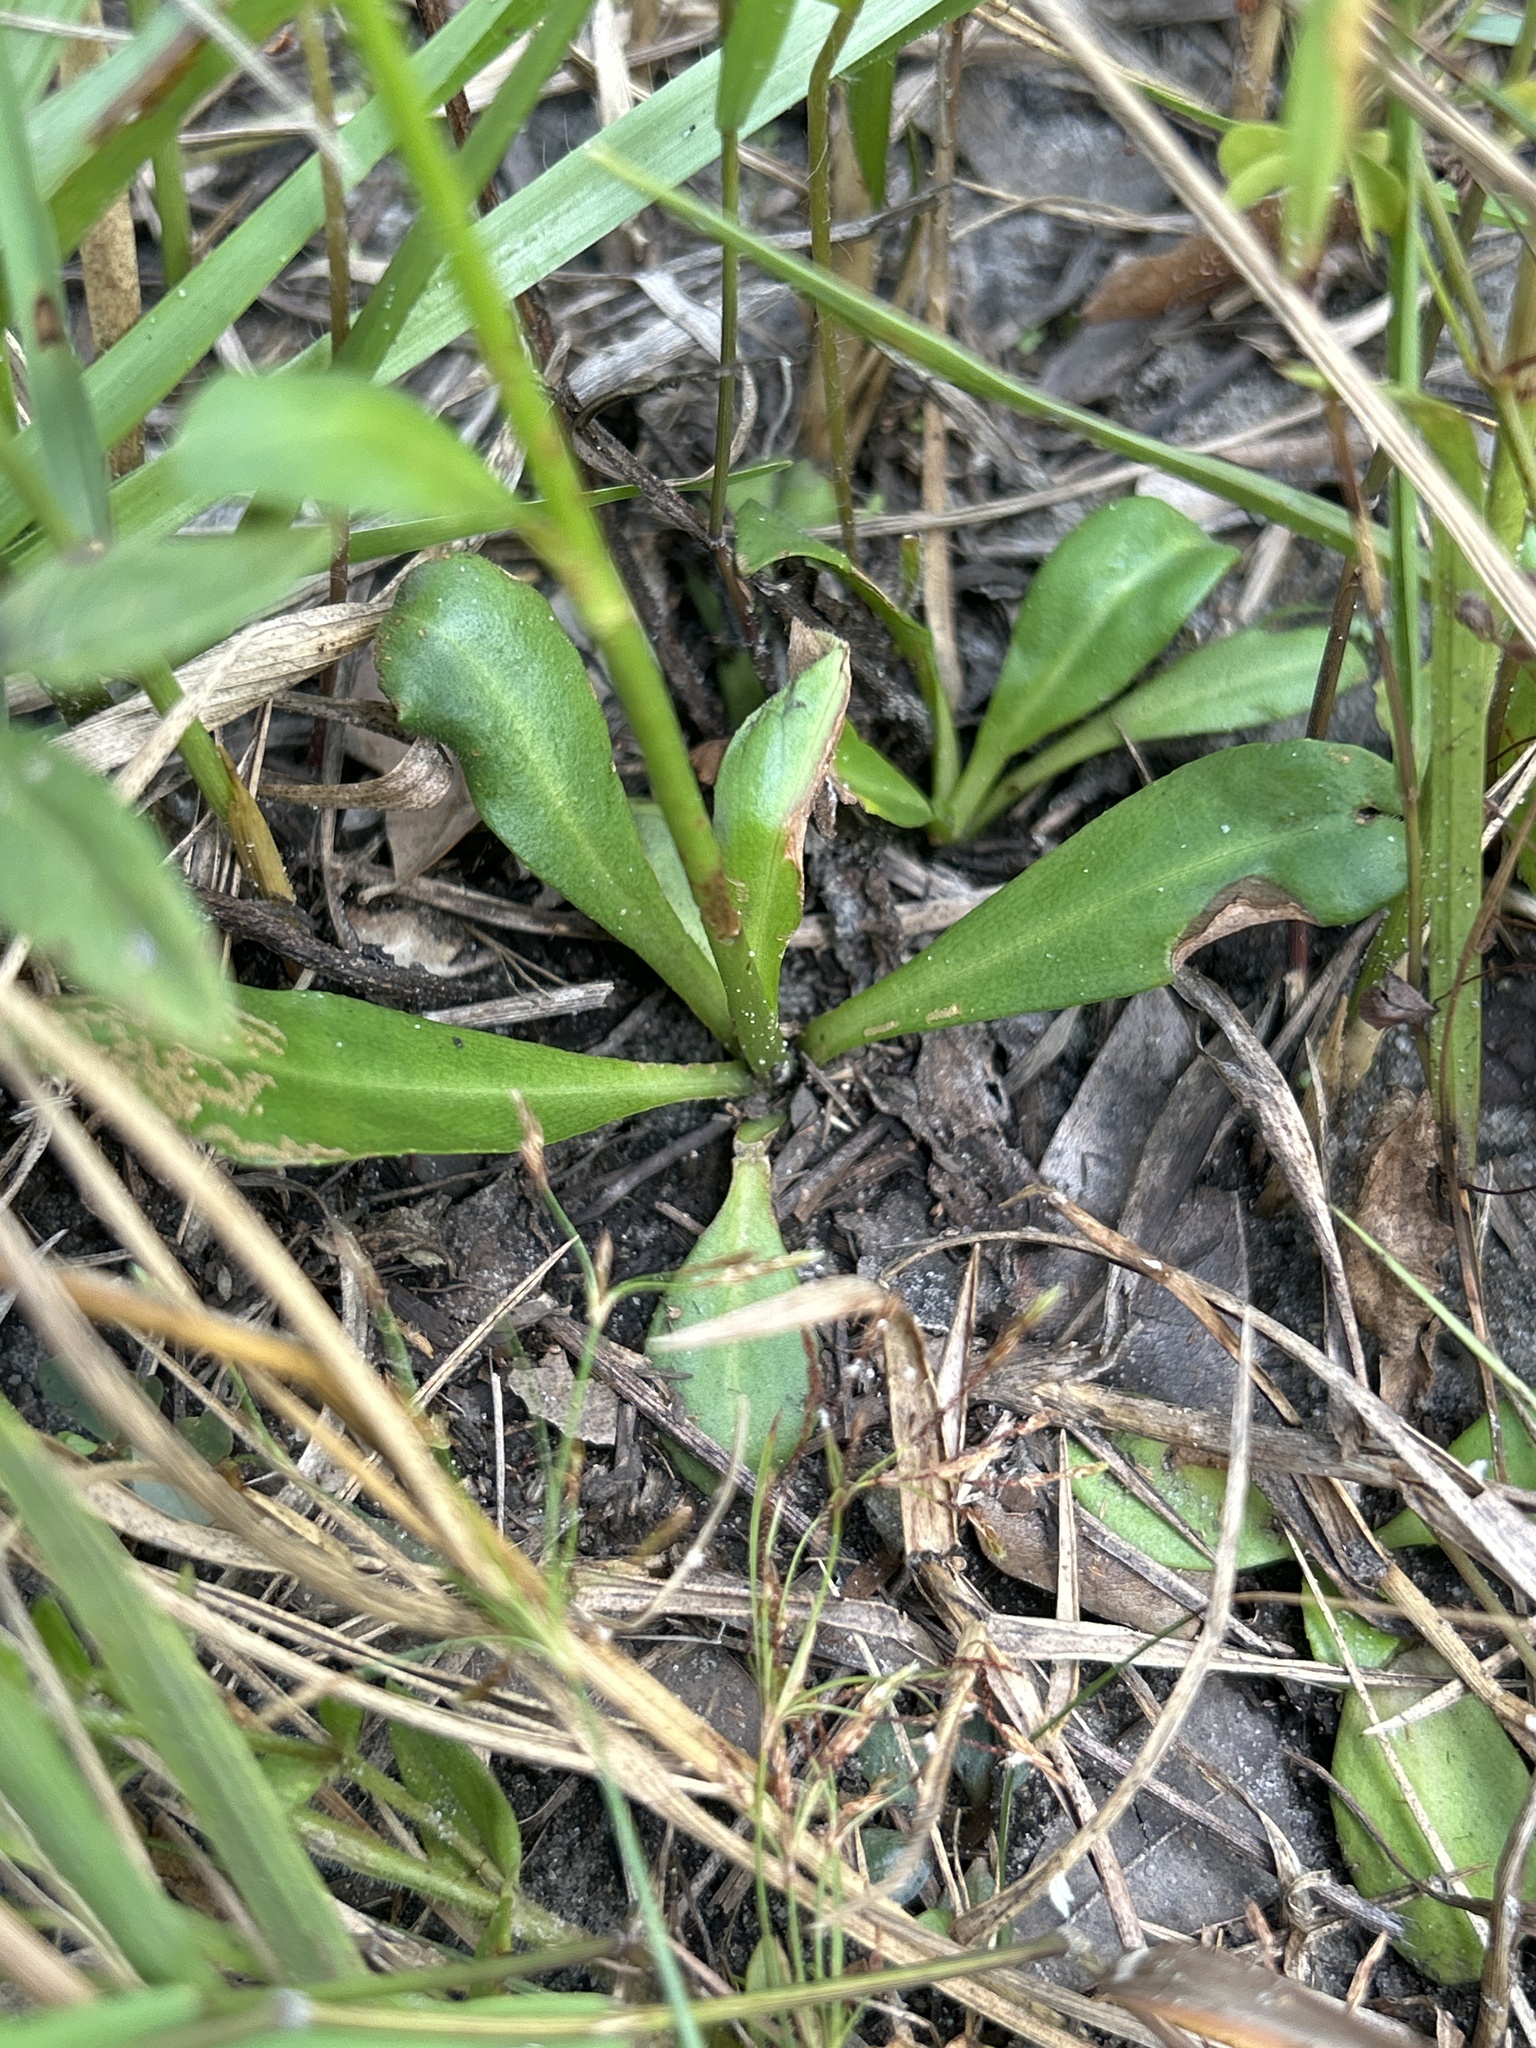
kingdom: Plantae
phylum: Tracheophyta
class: Magnoliopsida
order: Asterales
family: Asteraceae
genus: Erigeron
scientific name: Erigeron vernus
